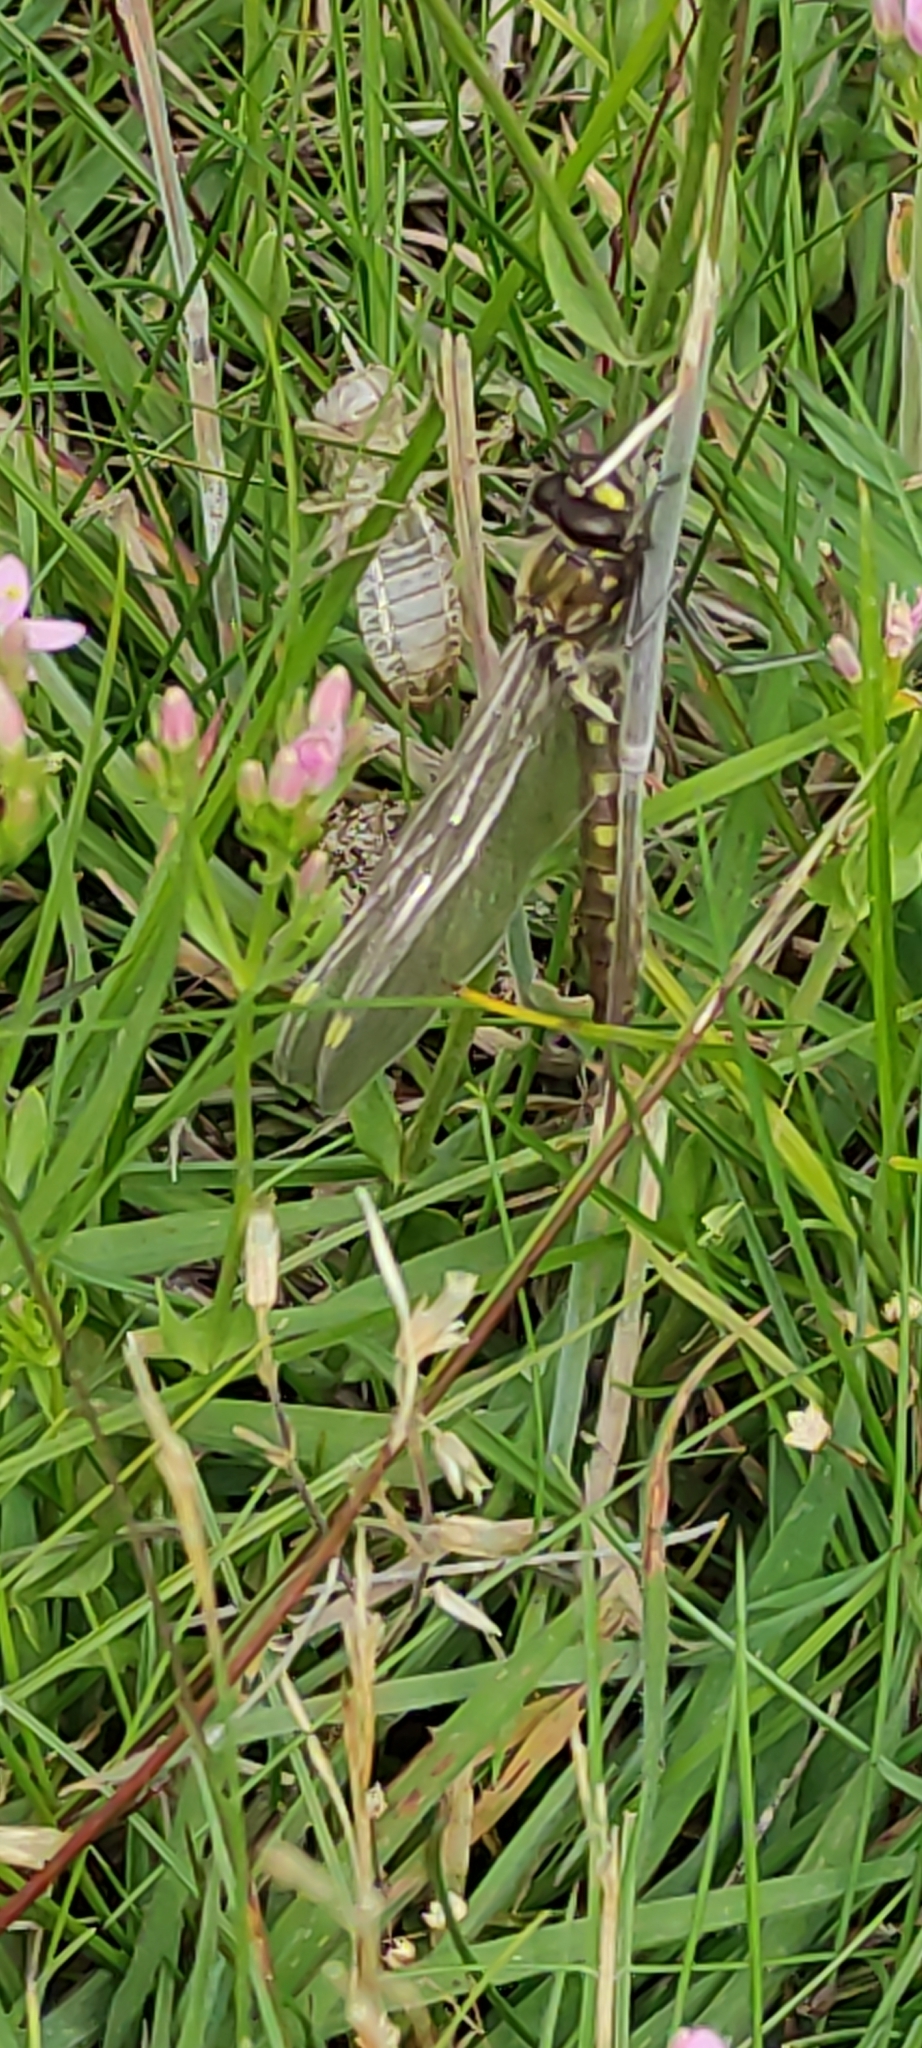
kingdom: Animalia
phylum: Arthropoda
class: Insecta
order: Odonata
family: Corduliidae
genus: Procordulia
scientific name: Procordulia grayi
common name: Yellow spotted dragonfly
